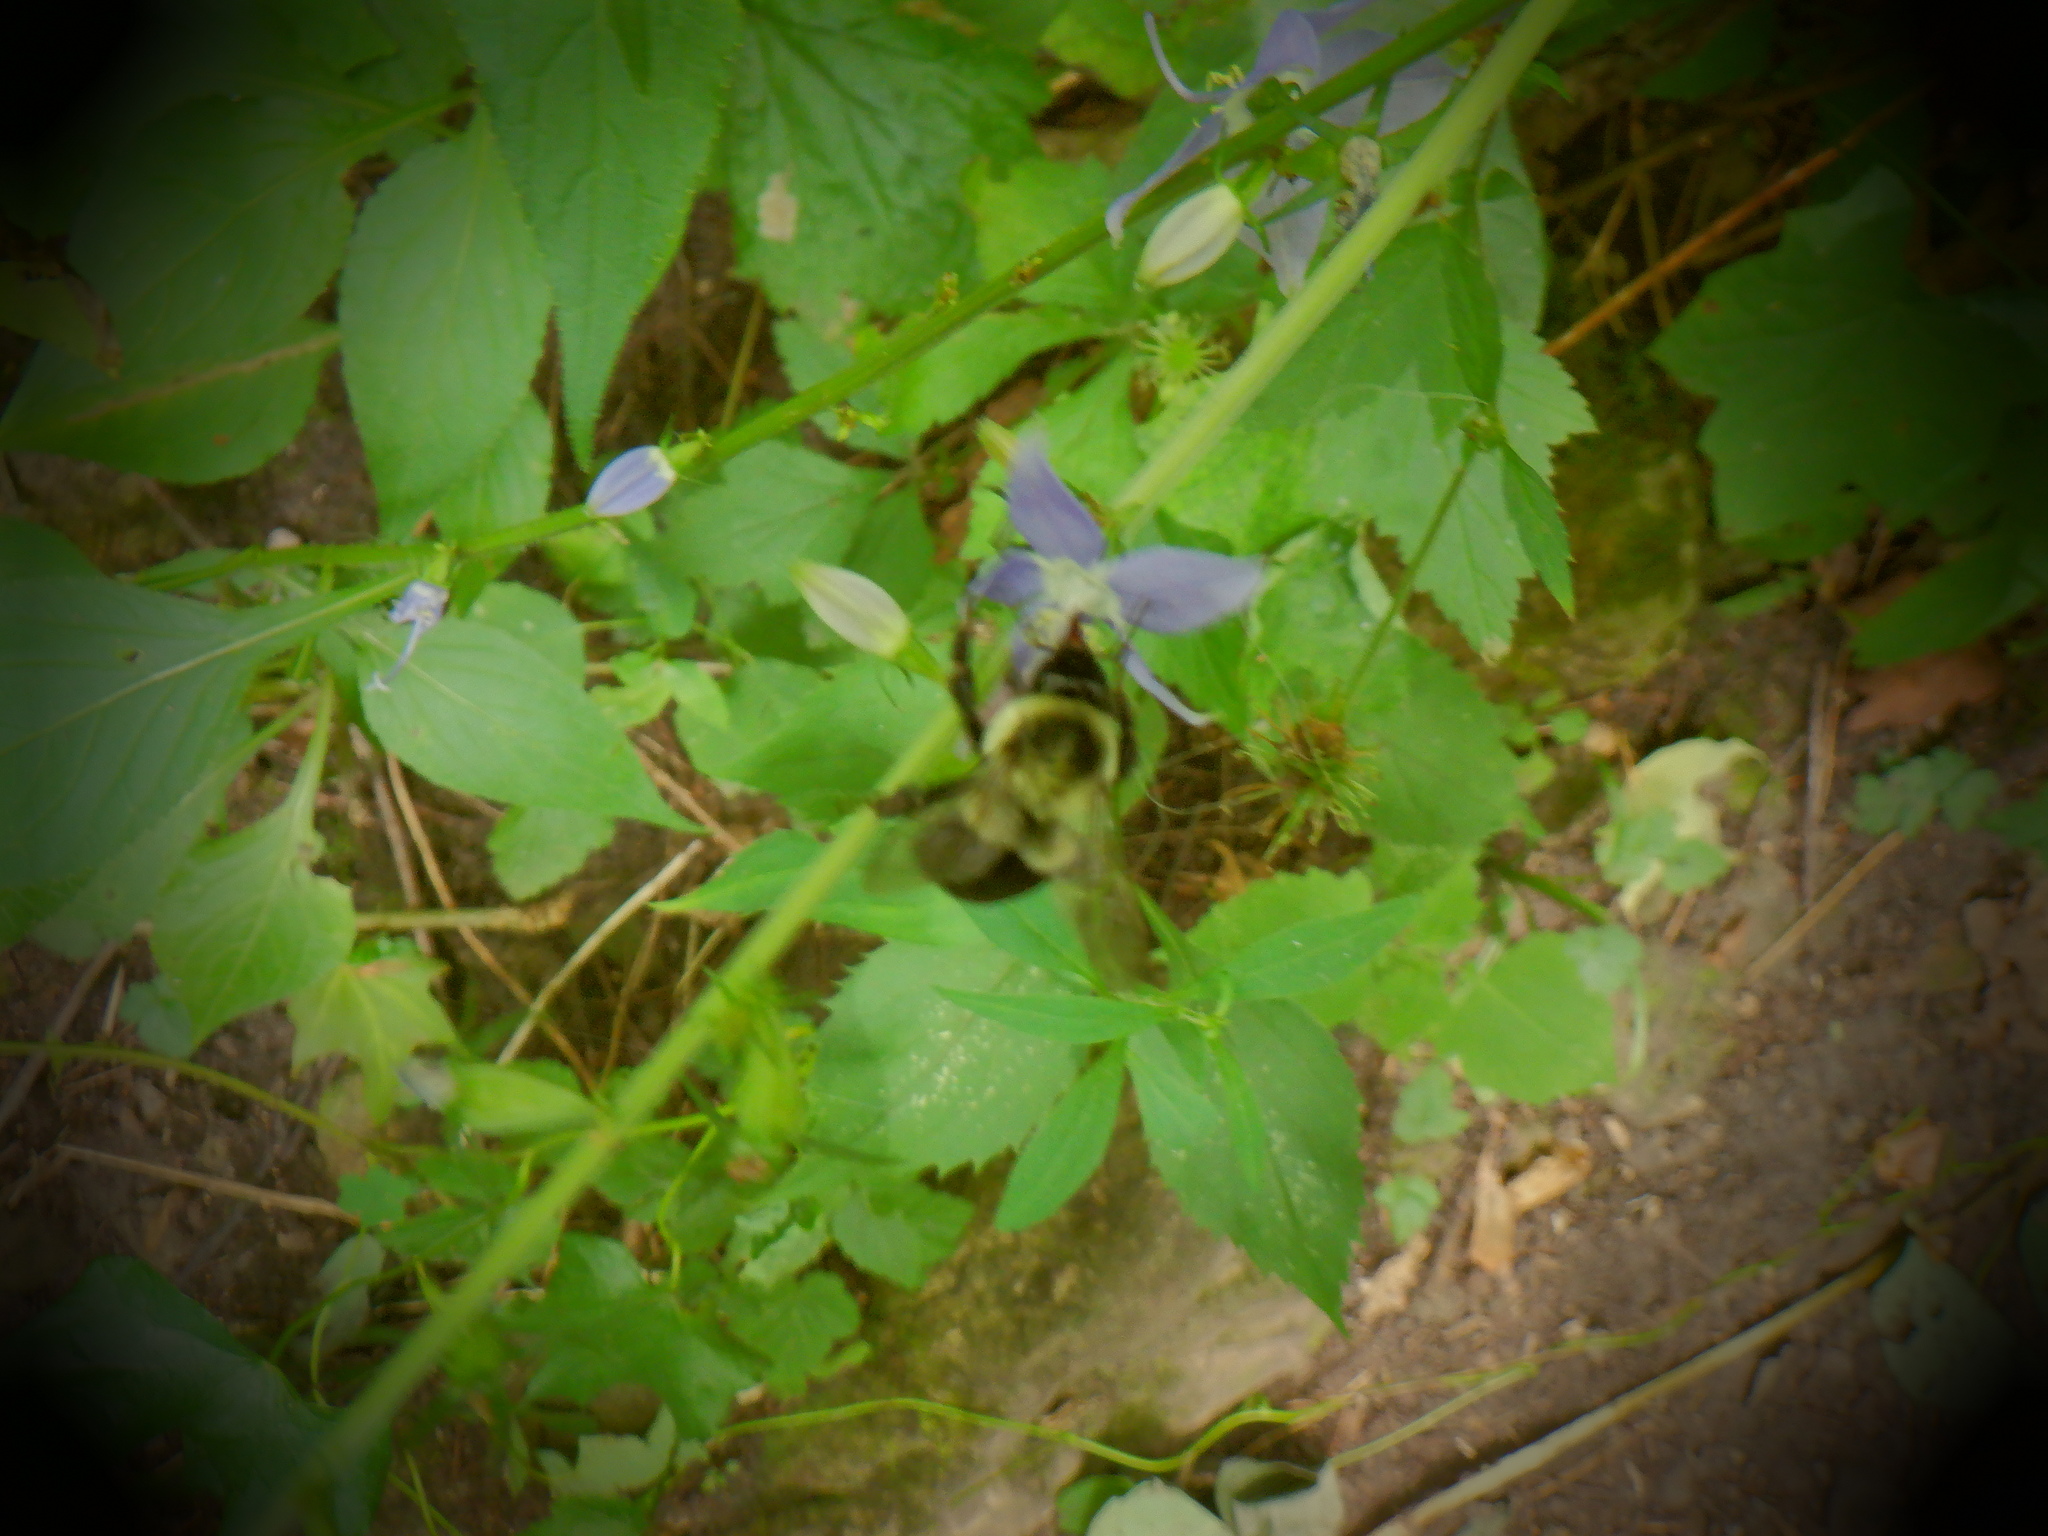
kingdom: Animalia
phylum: Arthropoda
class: Insecta
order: Hymenoptera
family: Apidae
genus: Bombus
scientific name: Bombus impatiens
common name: Common eastern bumble bee
